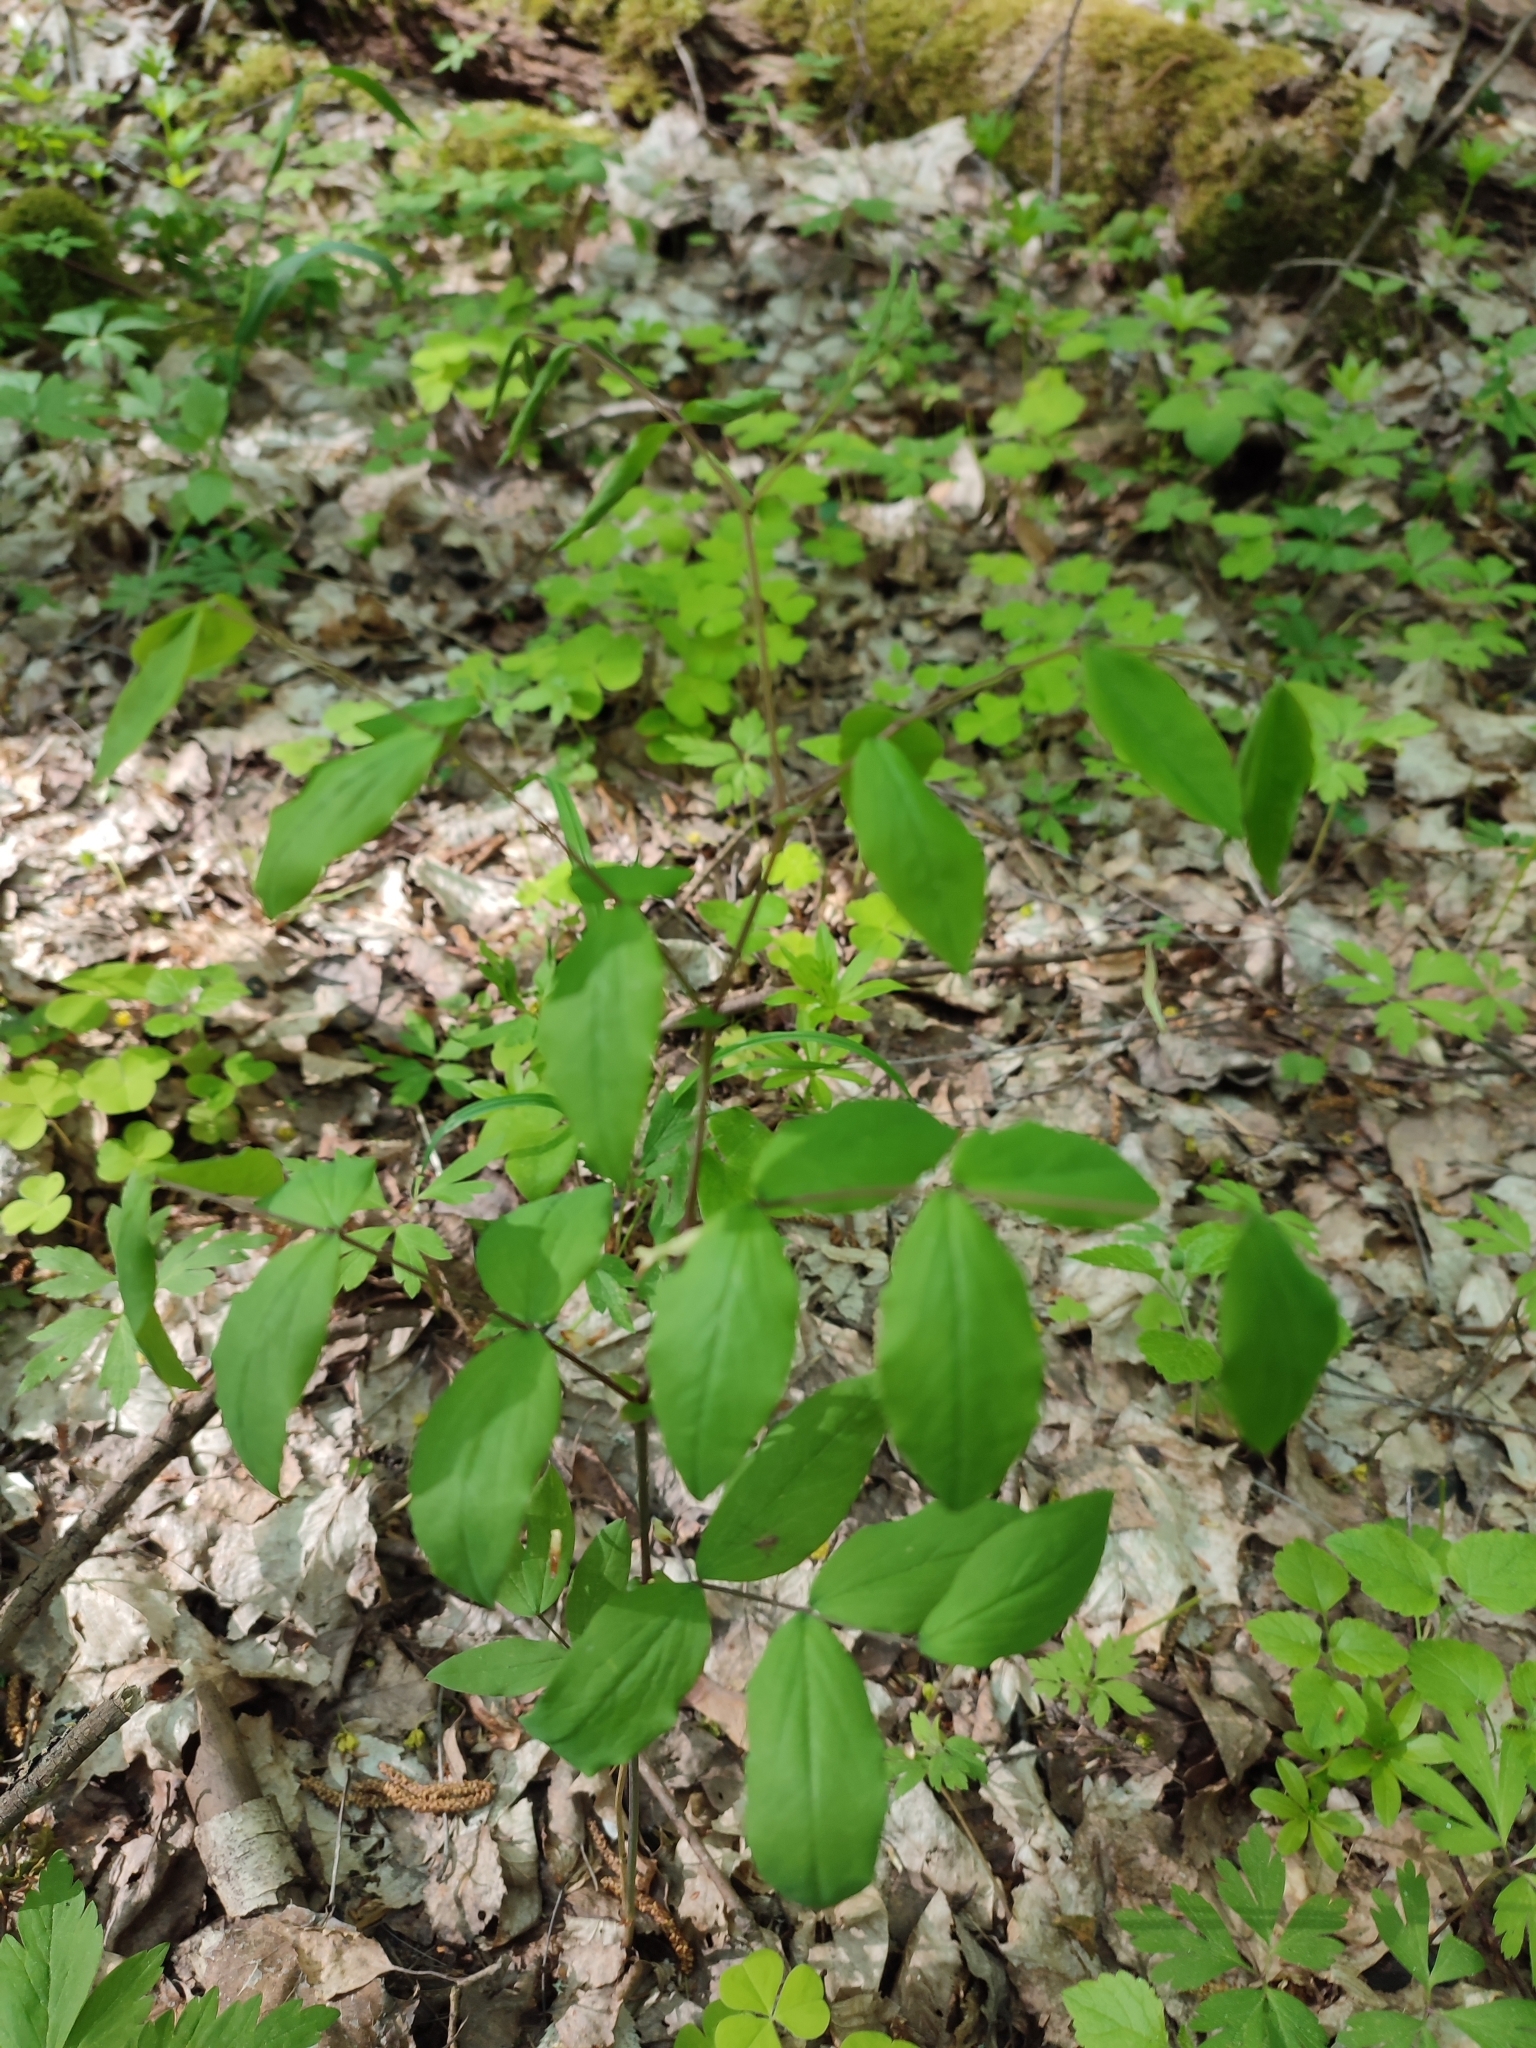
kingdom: Plantae
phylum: Tracheophyta
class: Magnoliopsida
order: Fabales
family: Fabaceae
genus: Lathyrus
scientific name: Lathyrus laevigatus
